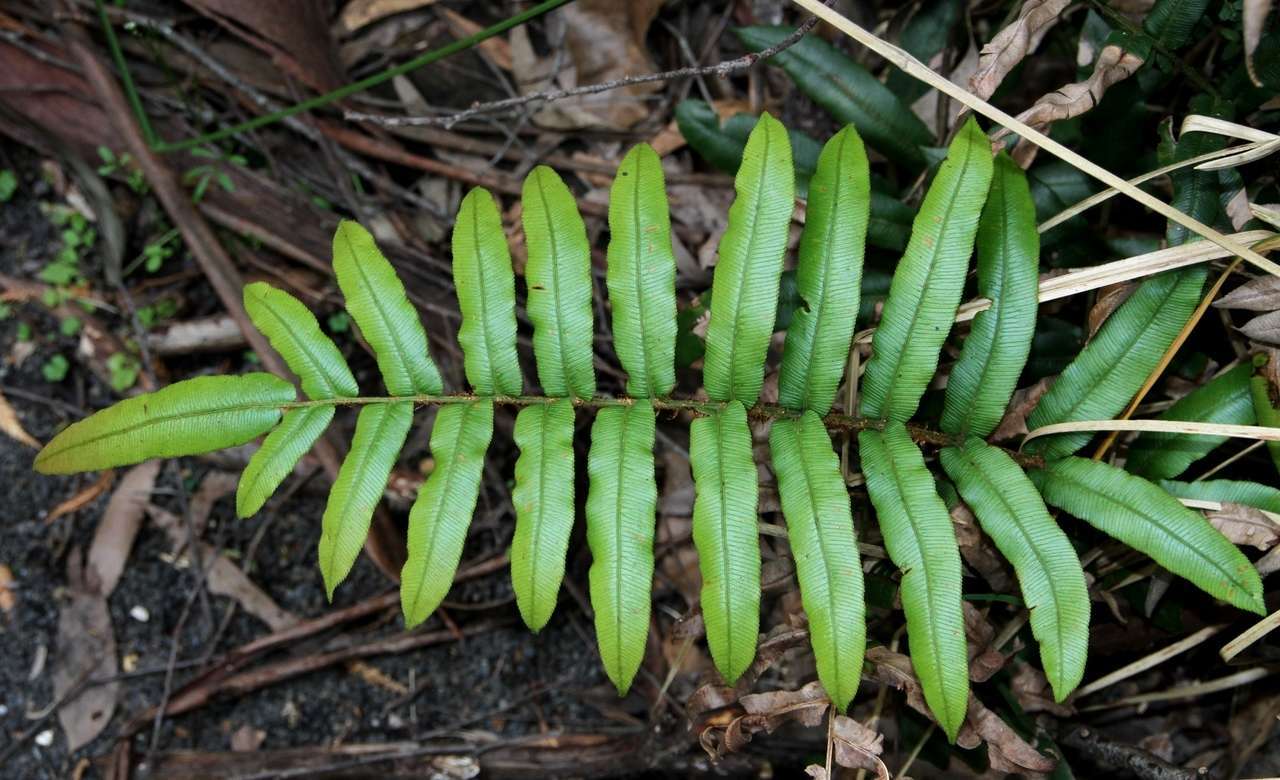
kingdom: Plantae
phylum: Tracheophyta
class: Polypodiopsida
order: Polypodiales
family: Blechnaceae
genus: Parablechnum
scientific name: Parablechnum wattsii
